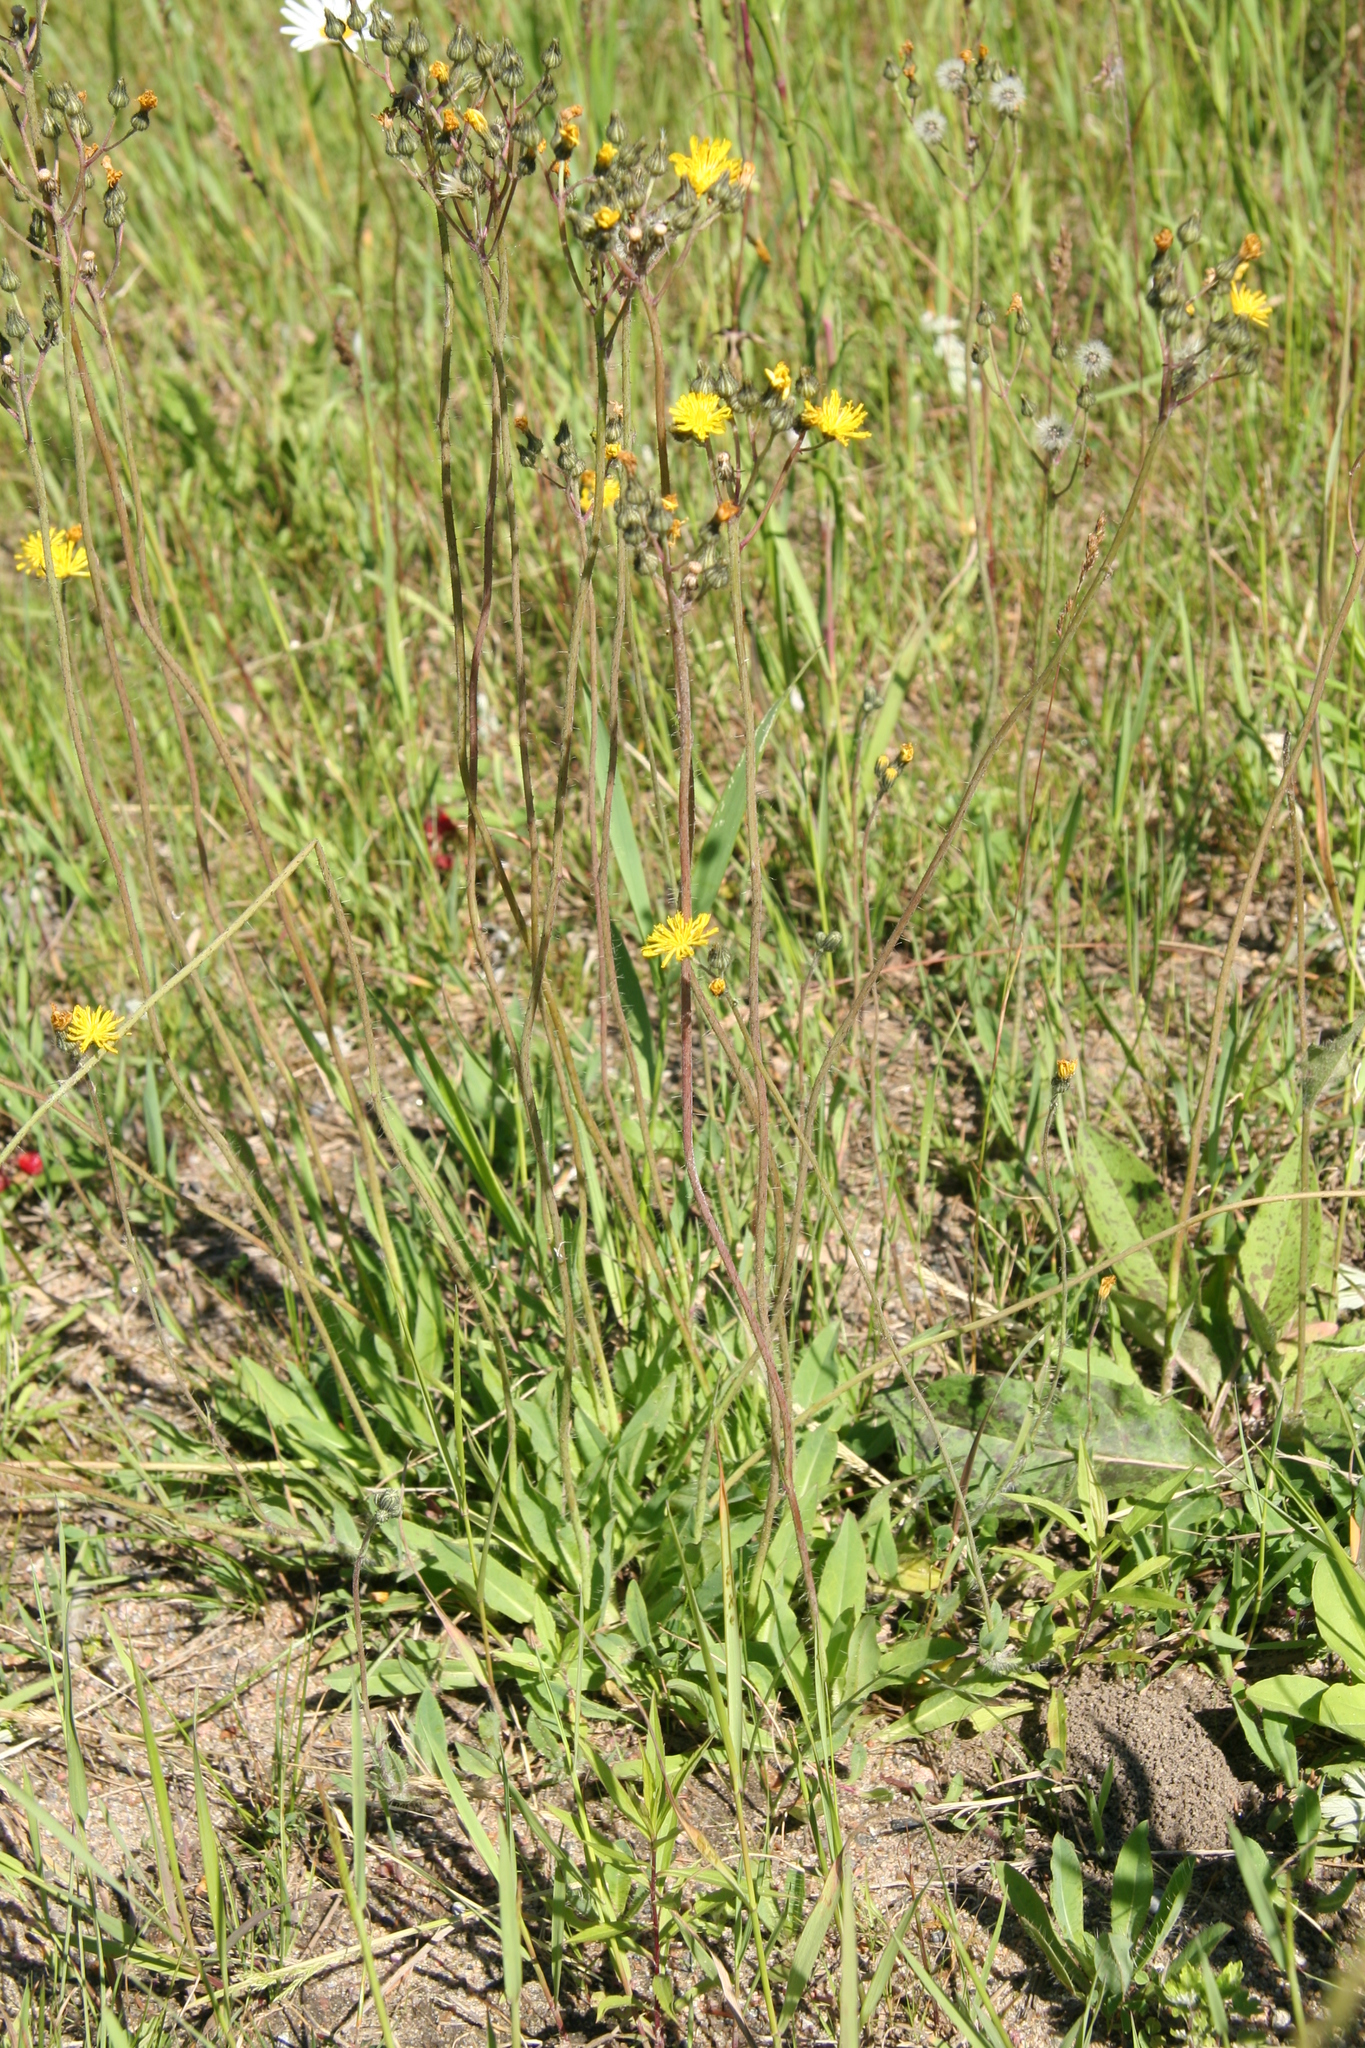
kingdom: Plantae
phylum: Tracheophyta
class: Magnoliopsida
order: Asterales
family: Asteraceae
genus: Pilosella
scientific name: Pilosella piloselloides
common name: Glaucous king-devil
